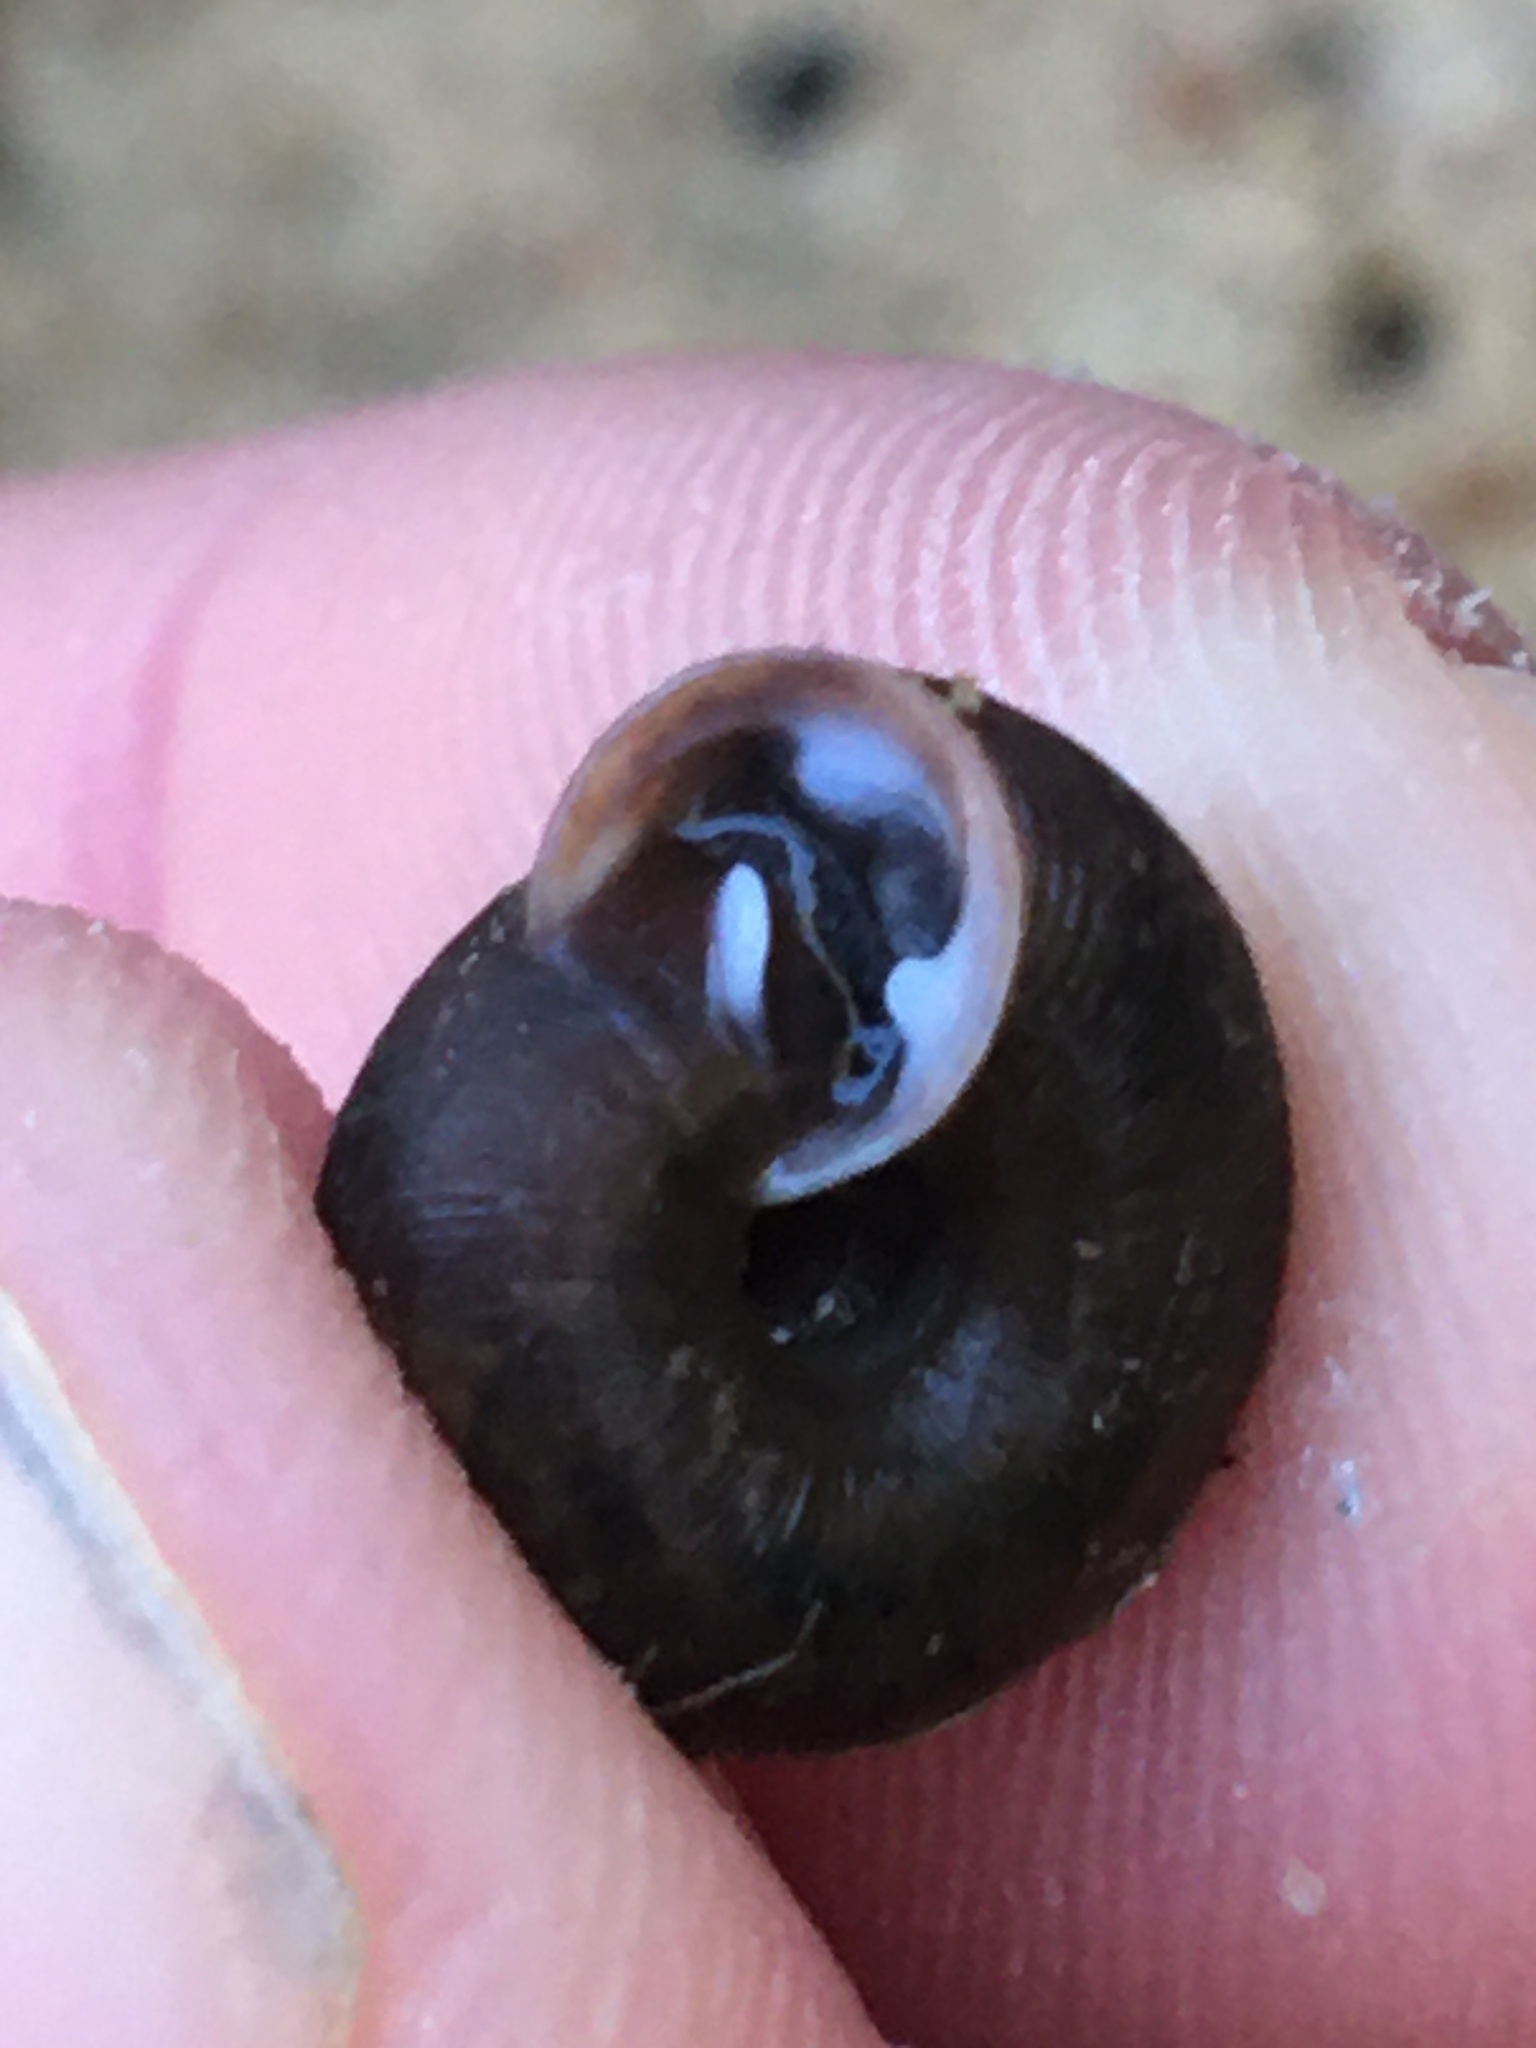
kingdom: Animalia
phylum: Mollusca
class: Gastropoda
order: Stylommatophora
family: Polygyridae
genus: Triodopsis
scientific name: Triodopsis hopetonensis
